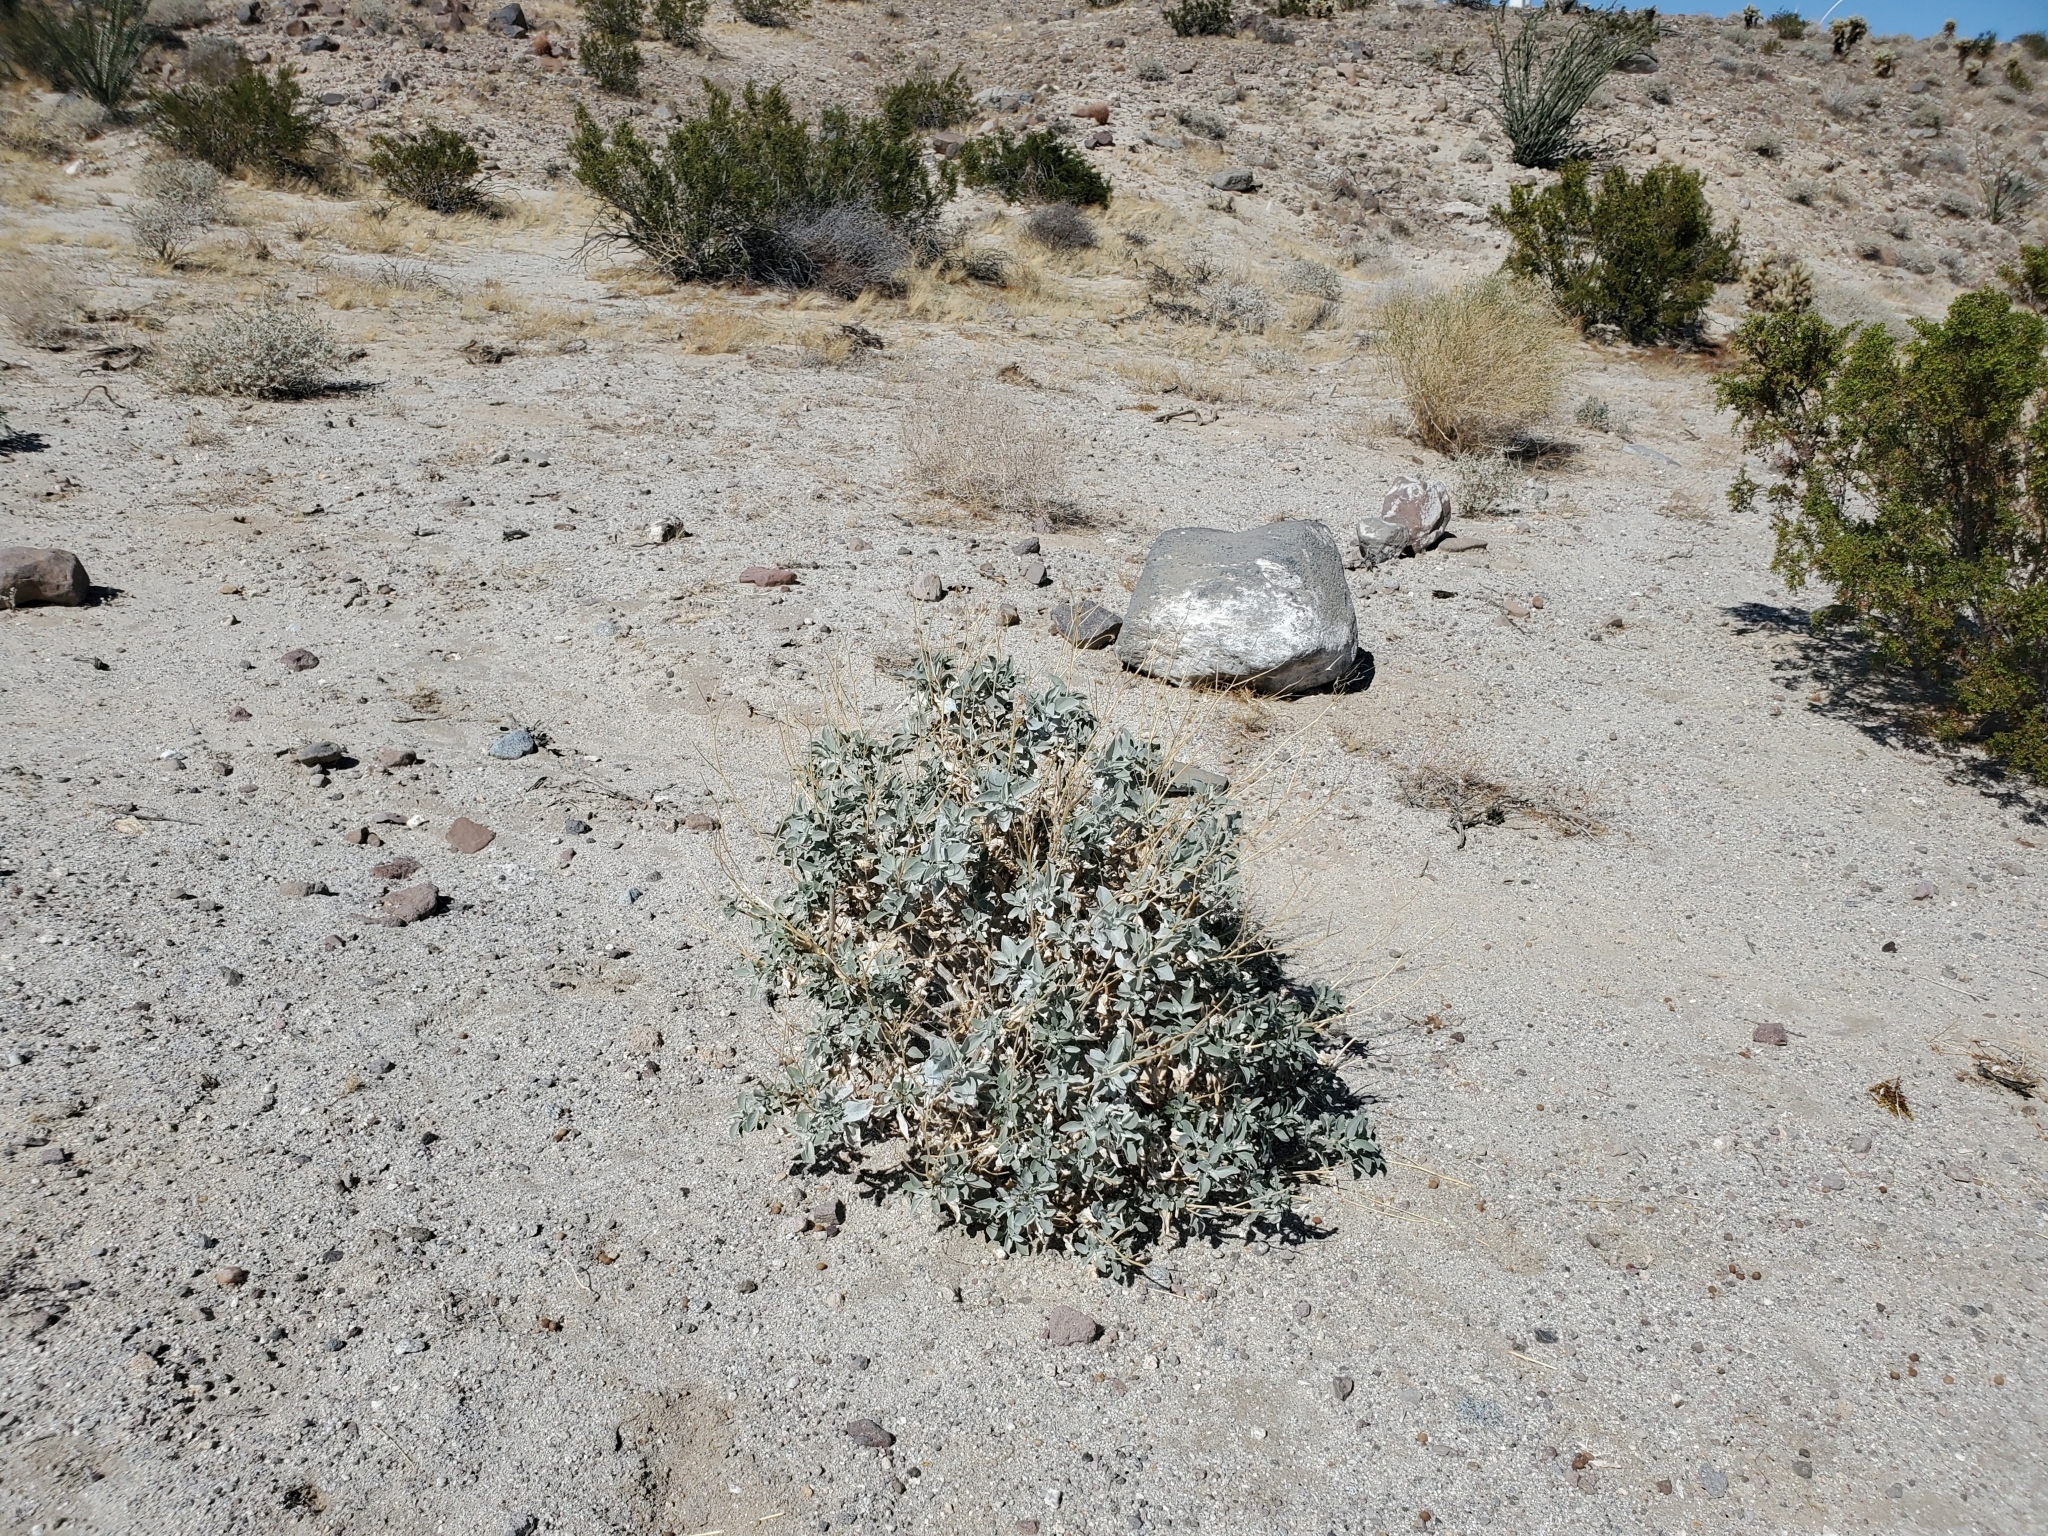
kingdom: Plantae
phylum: Tracheophyta
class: Magnoliopsida
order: Asterales
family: Asteraceae
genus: Encelia
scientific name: Encelia farinosa
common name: Brittlebush
